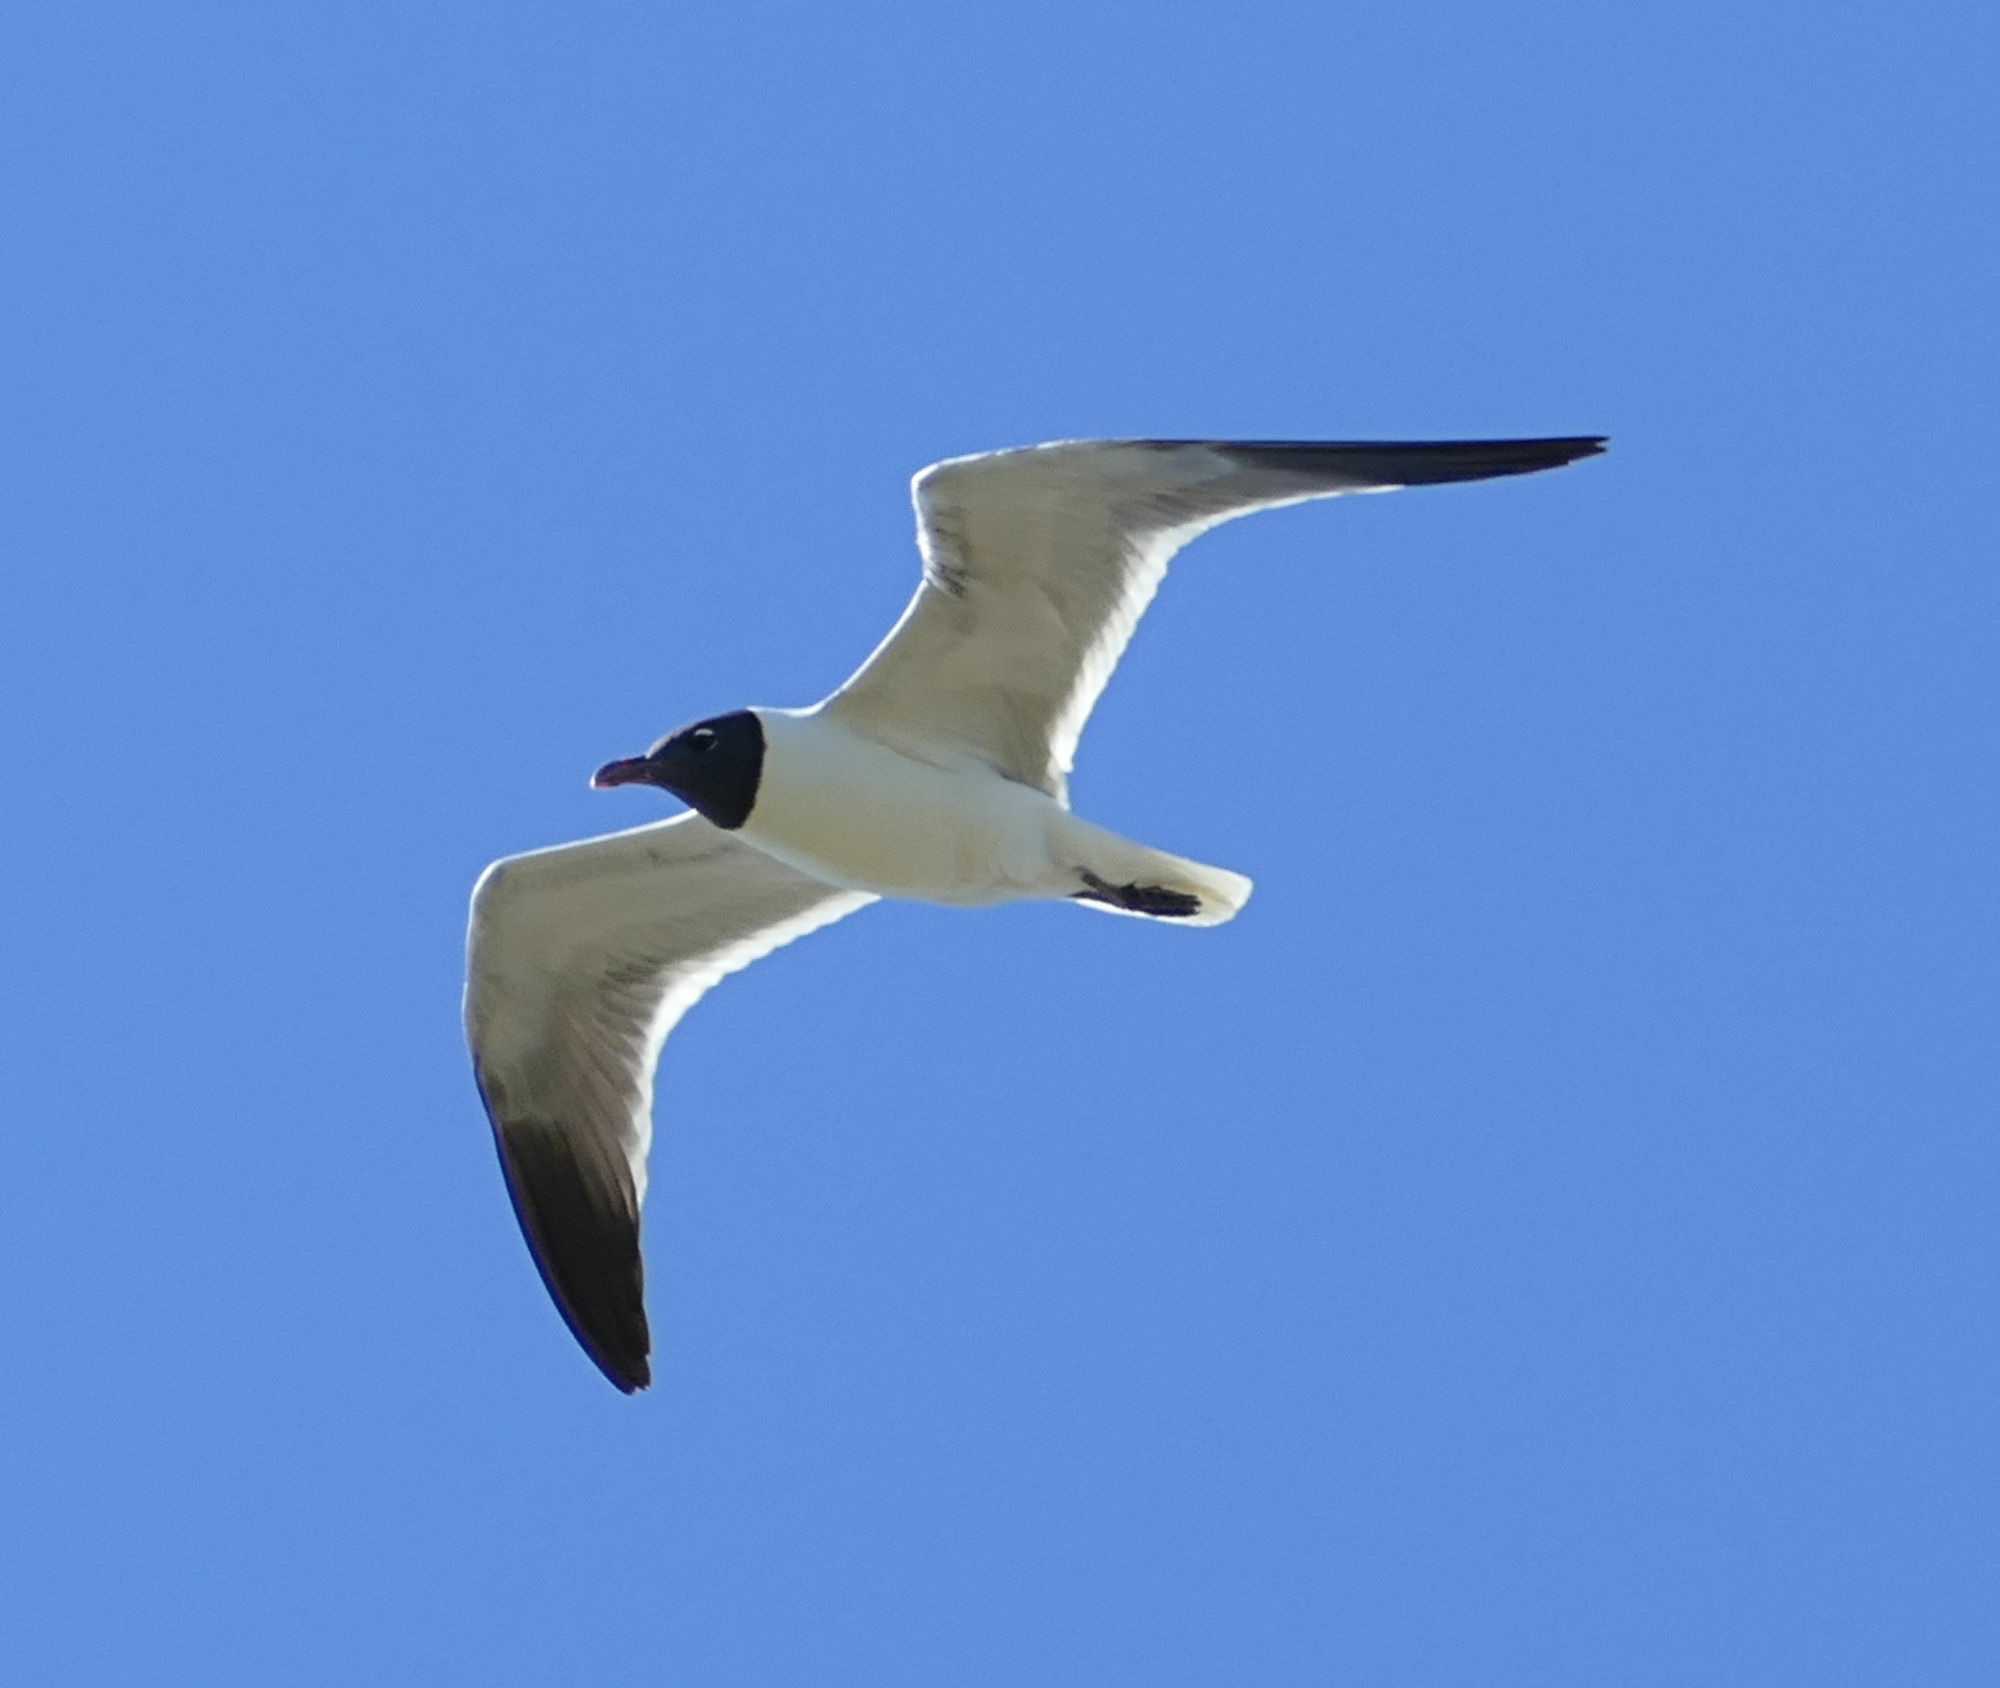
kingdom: Animalia
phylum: Chordata
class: Aves
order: Charadriiformes
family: Laridae
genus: Leucophaeus
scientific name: Leucophaeus atricilla
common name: Laughing gull
